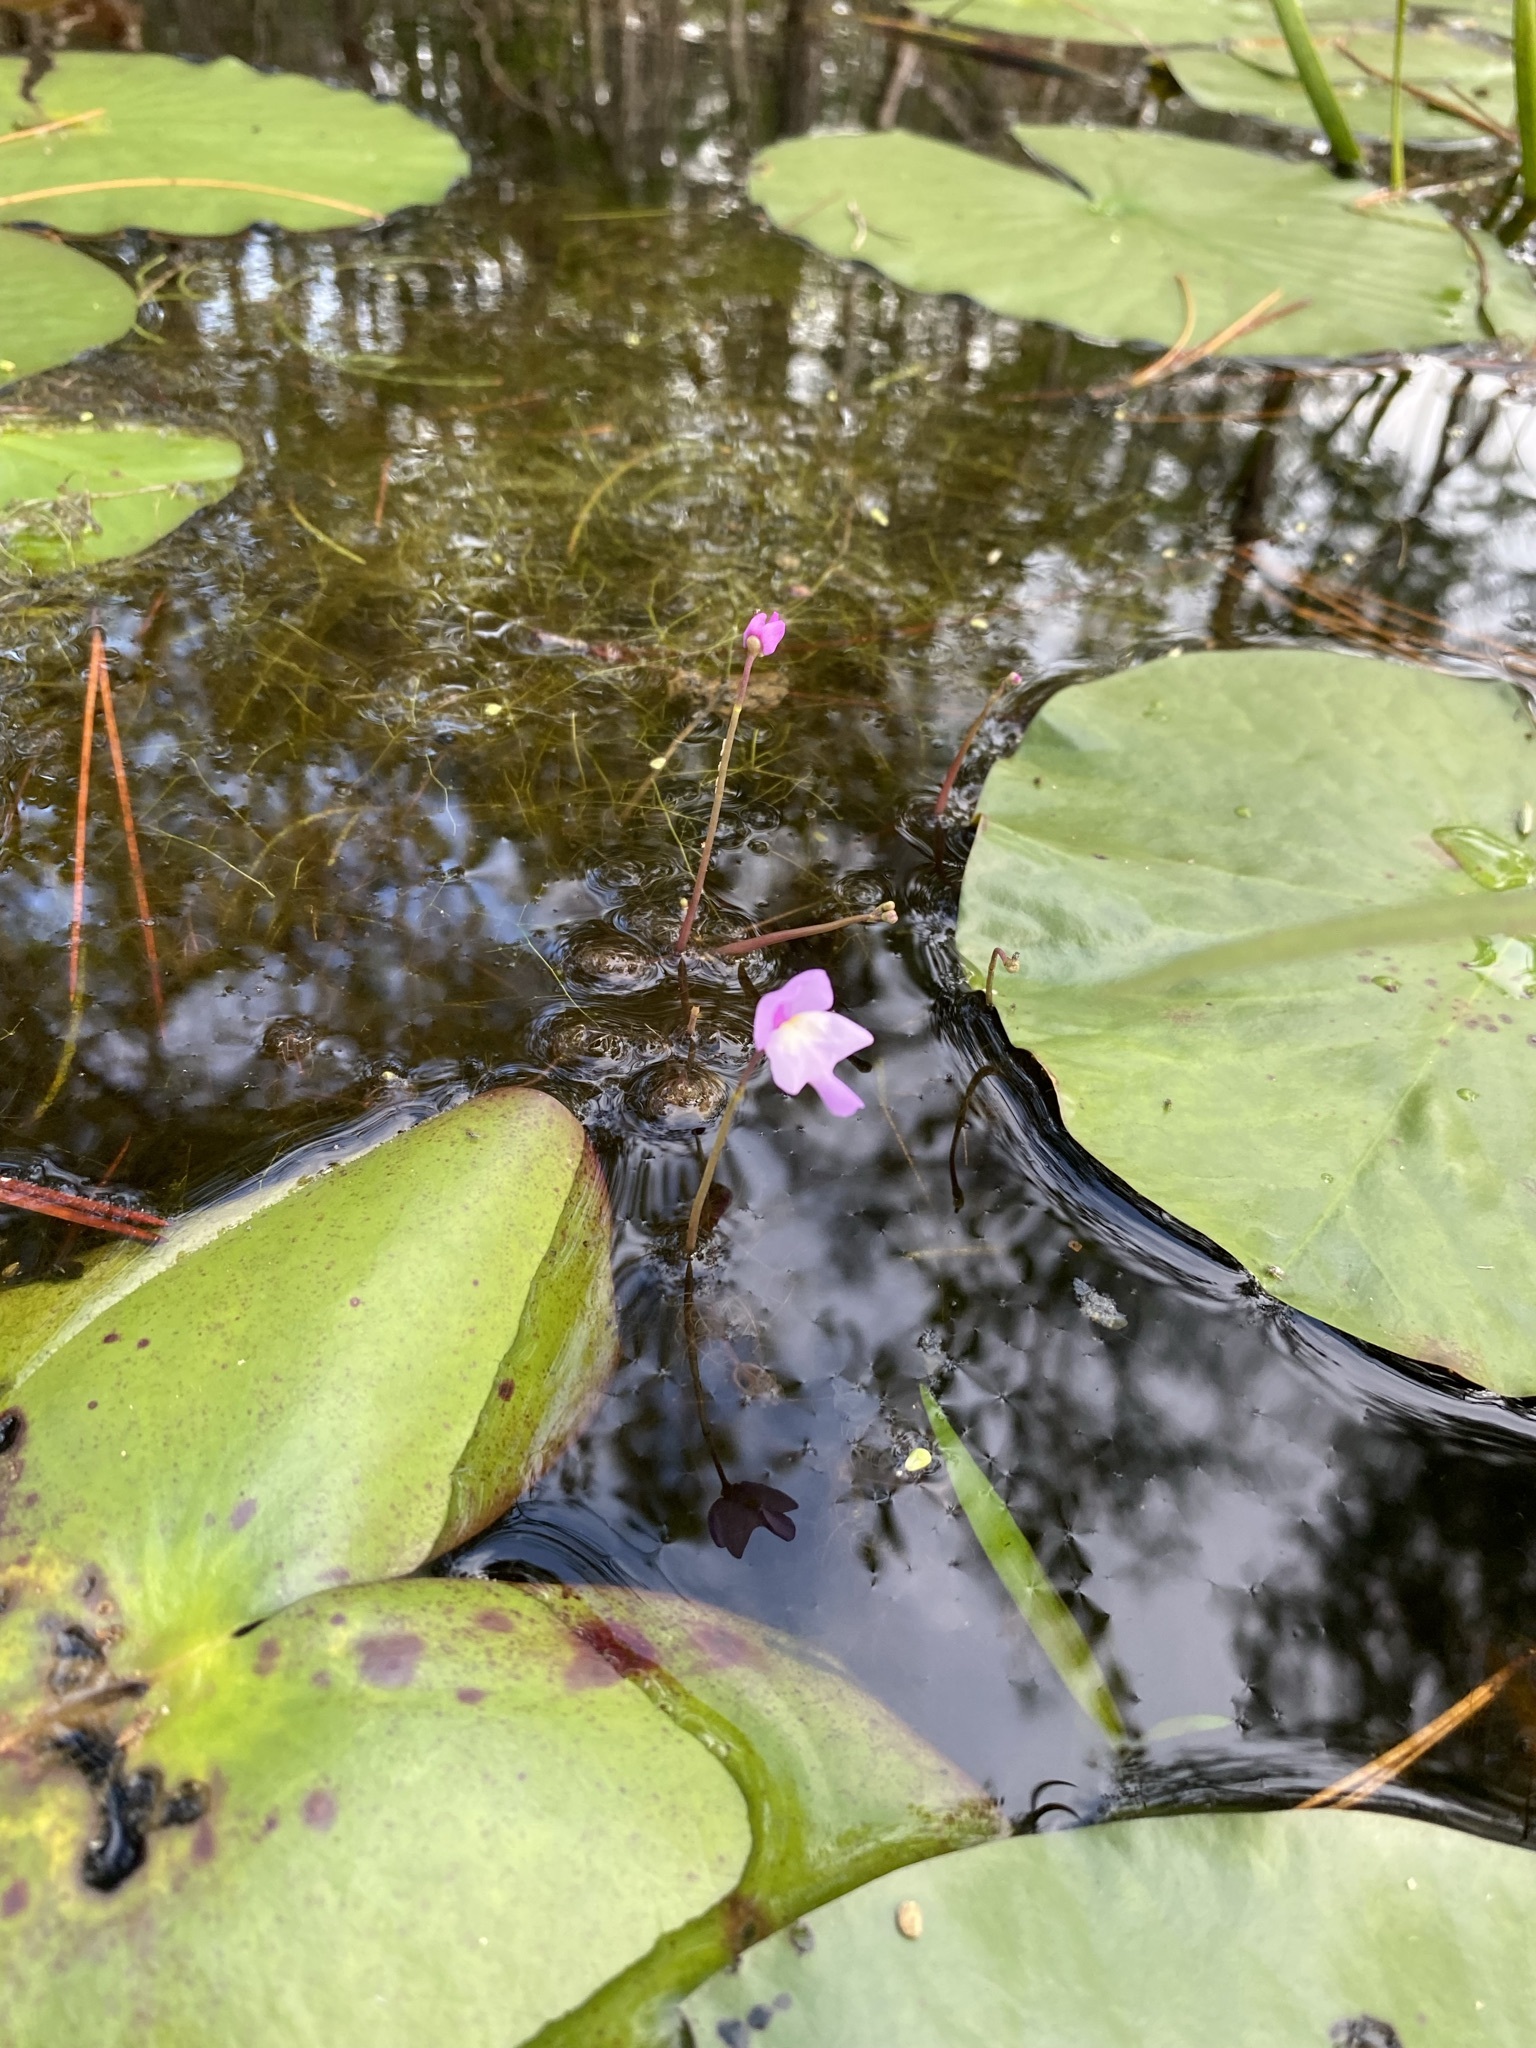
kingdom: Plantae
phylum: Tracheophyta
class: Magnoliopsida
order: Lamiales
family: Lentibulariaceae
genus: Utricularia
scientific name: Utricularia purpurea
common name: Eastern purple bladderwort
